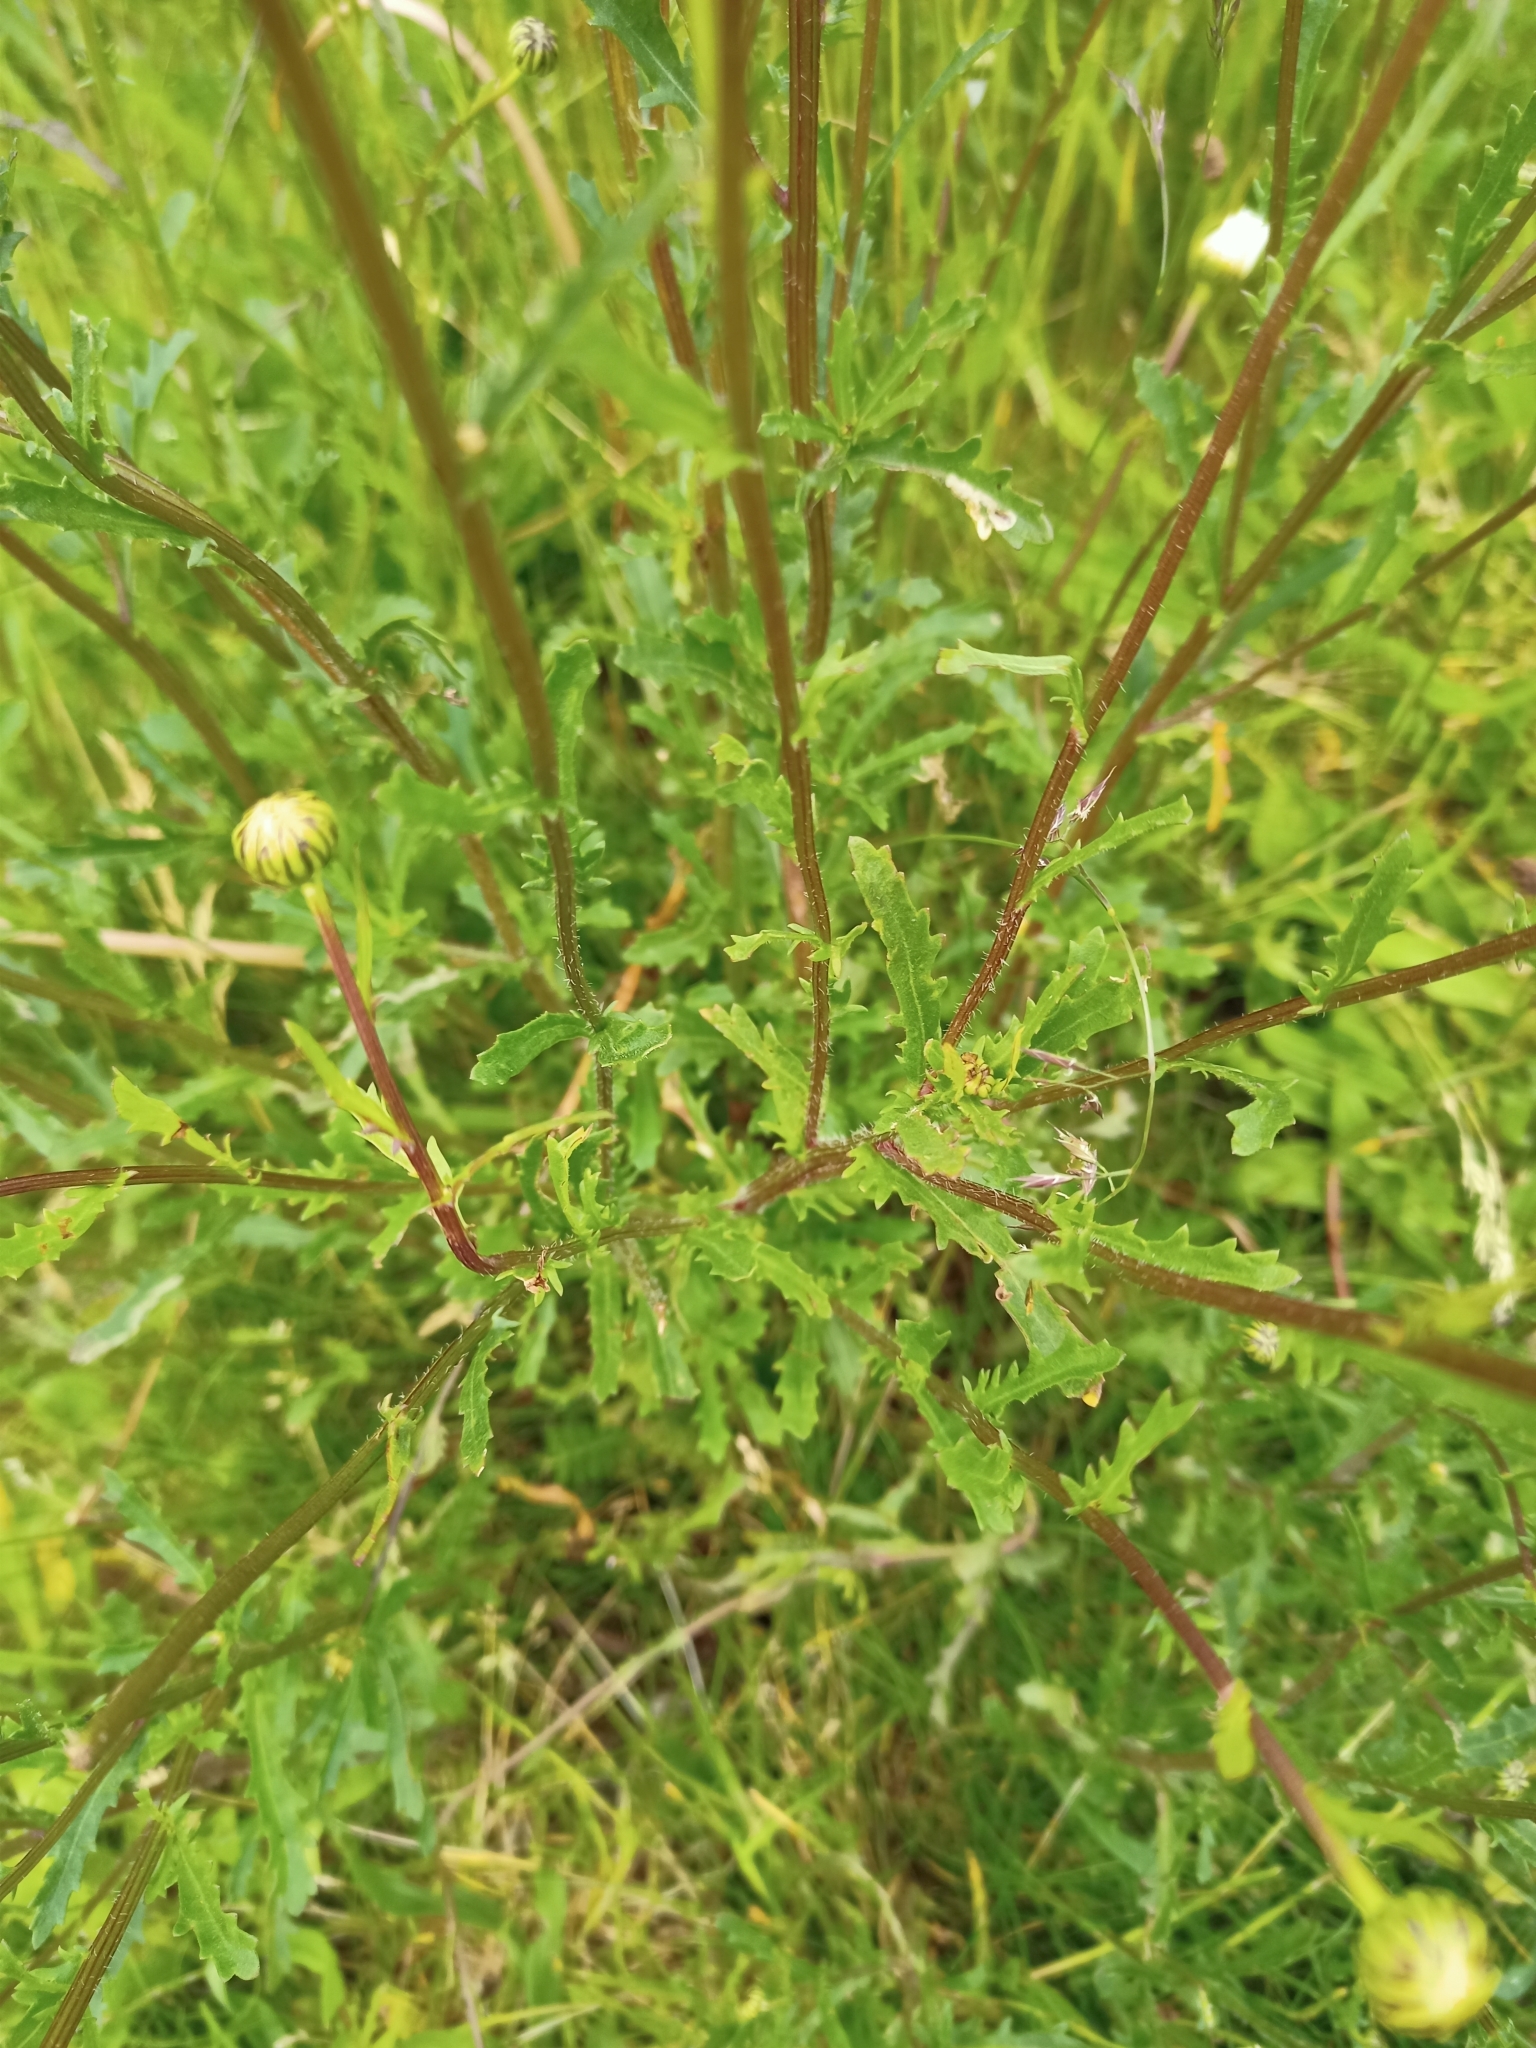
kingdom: Plantae
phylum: Tracheophyta
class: Magnoliopsida
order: Asterales
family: Asteraceae
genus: Leucanthemum
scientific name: Leucanthemum vulgare
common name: Oxeye daisy
